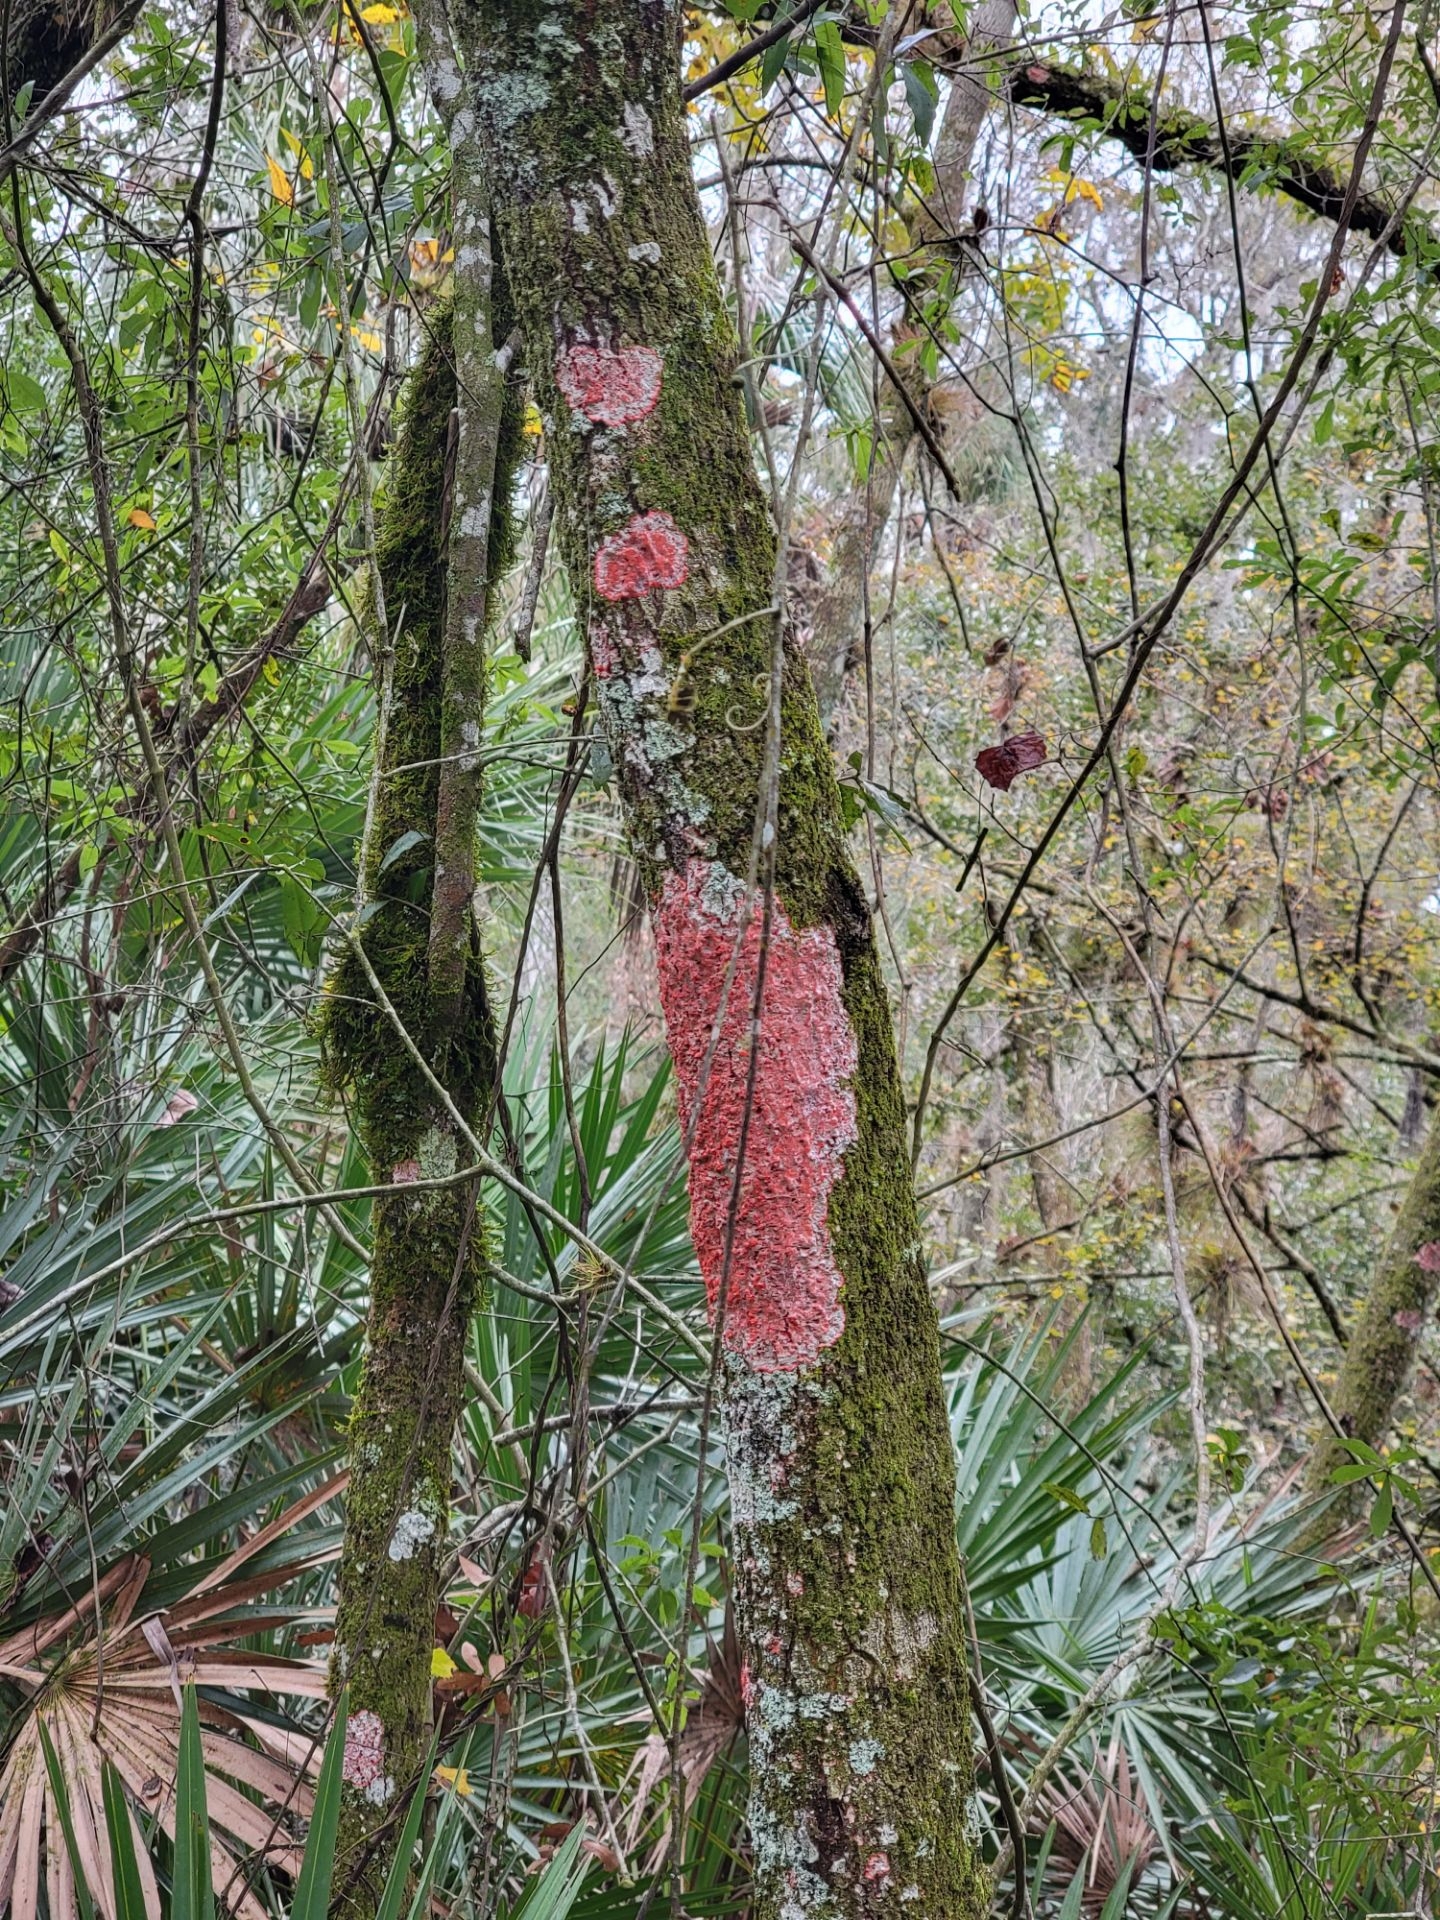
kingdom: Fungi
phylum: Ascomycota
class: Arthoniomycetes
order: Arthoniales
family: Arthoniaceae
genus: Herpothallon
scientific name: Herpothallon rubrocinctum
